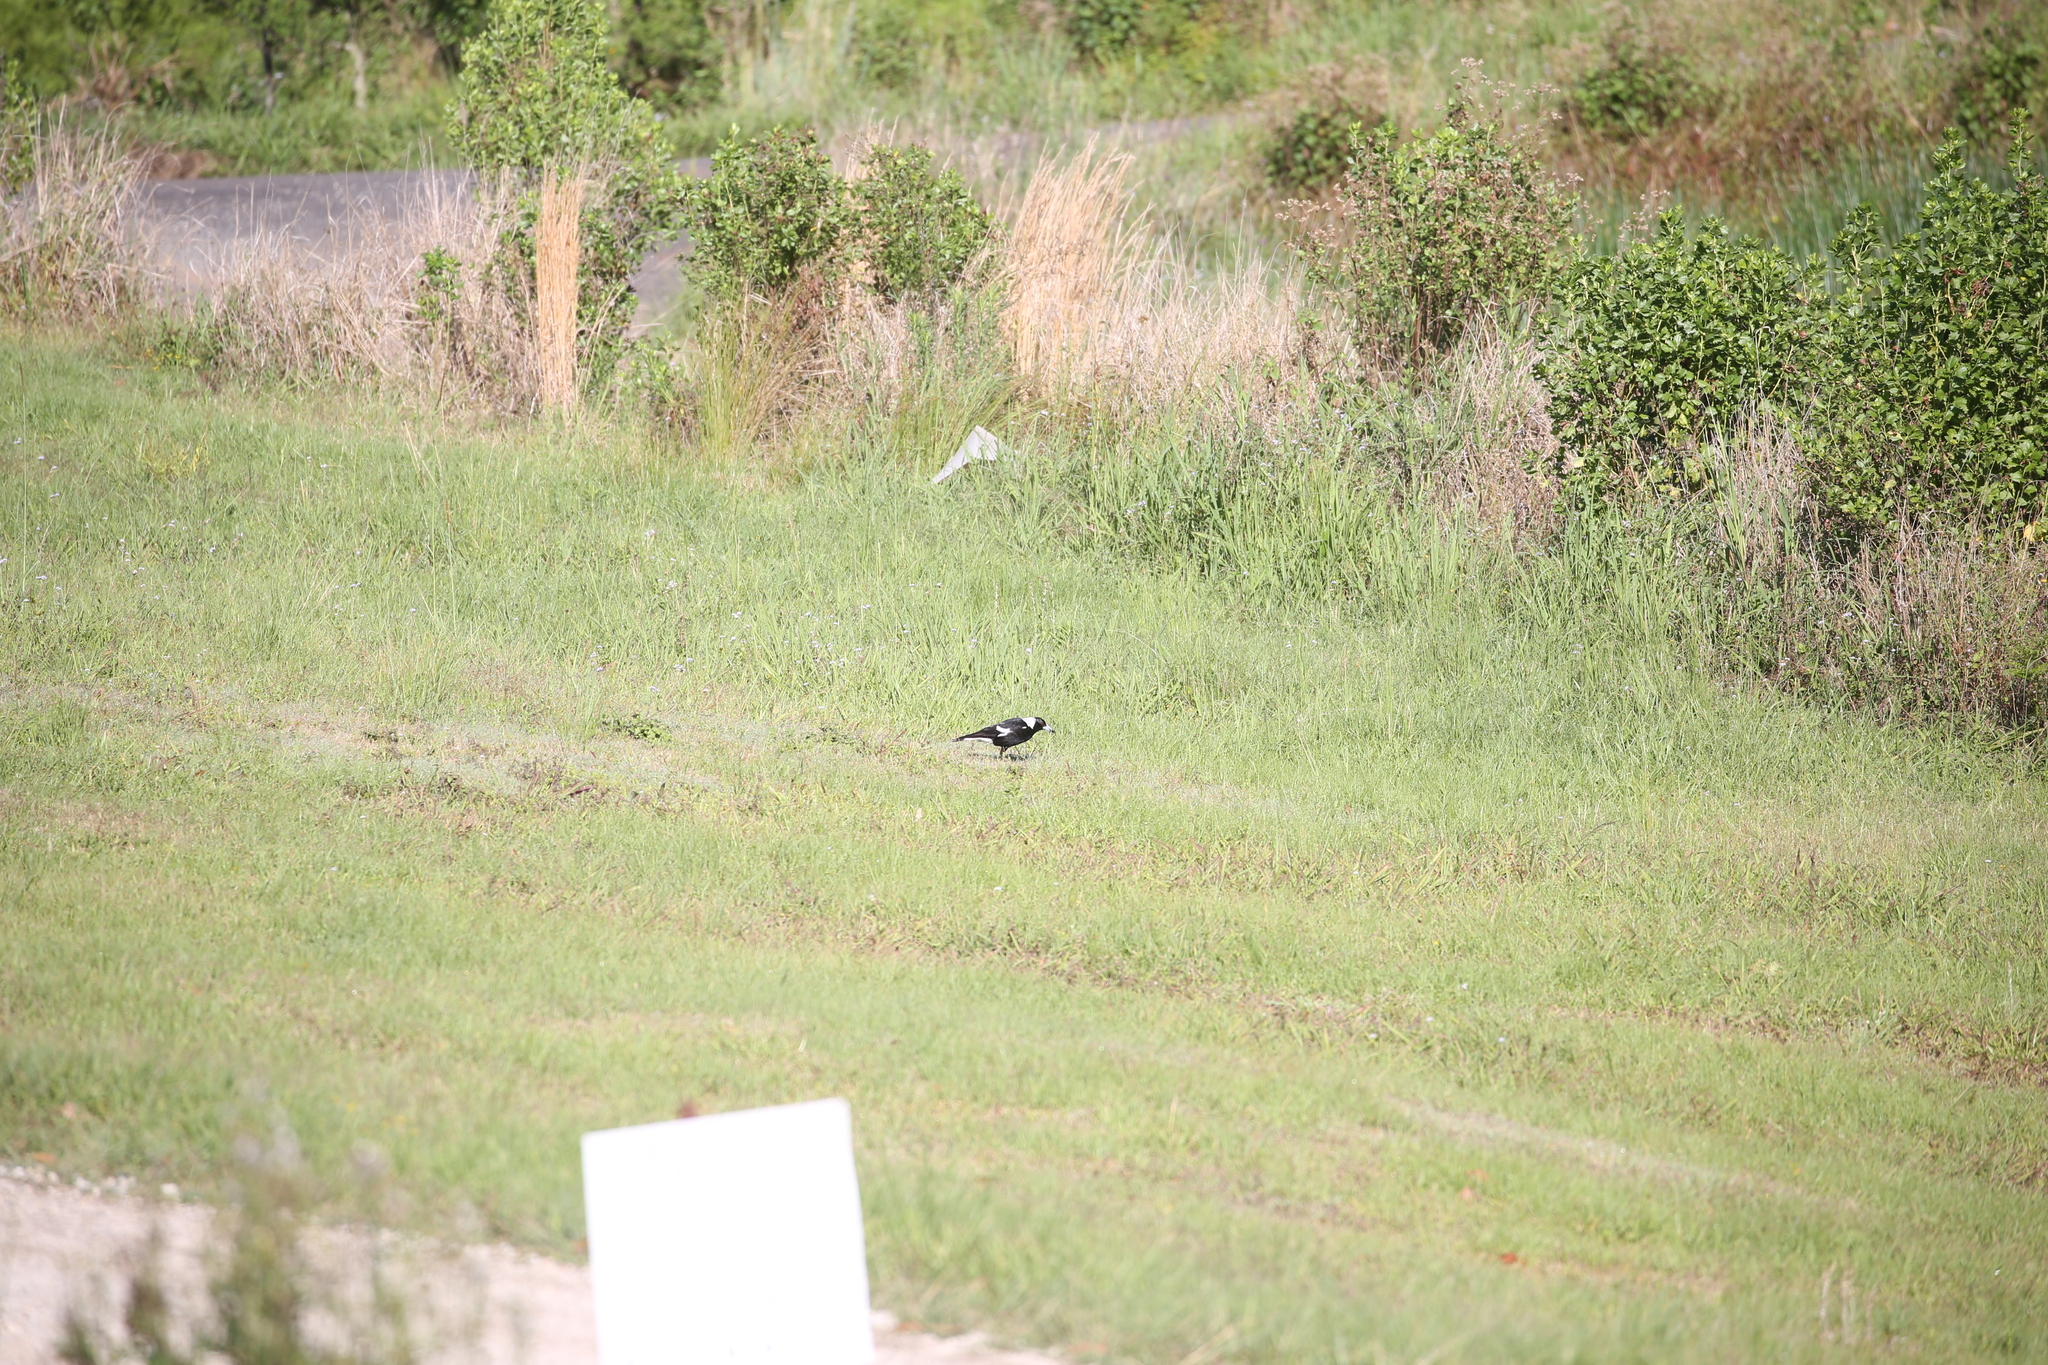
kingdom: Animalia
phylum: Chordata
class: Aves
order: Passeriformes
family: Cracticidae
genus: Gymnorhina
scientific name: Gymnorhina tibicen
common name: Australian magpie
